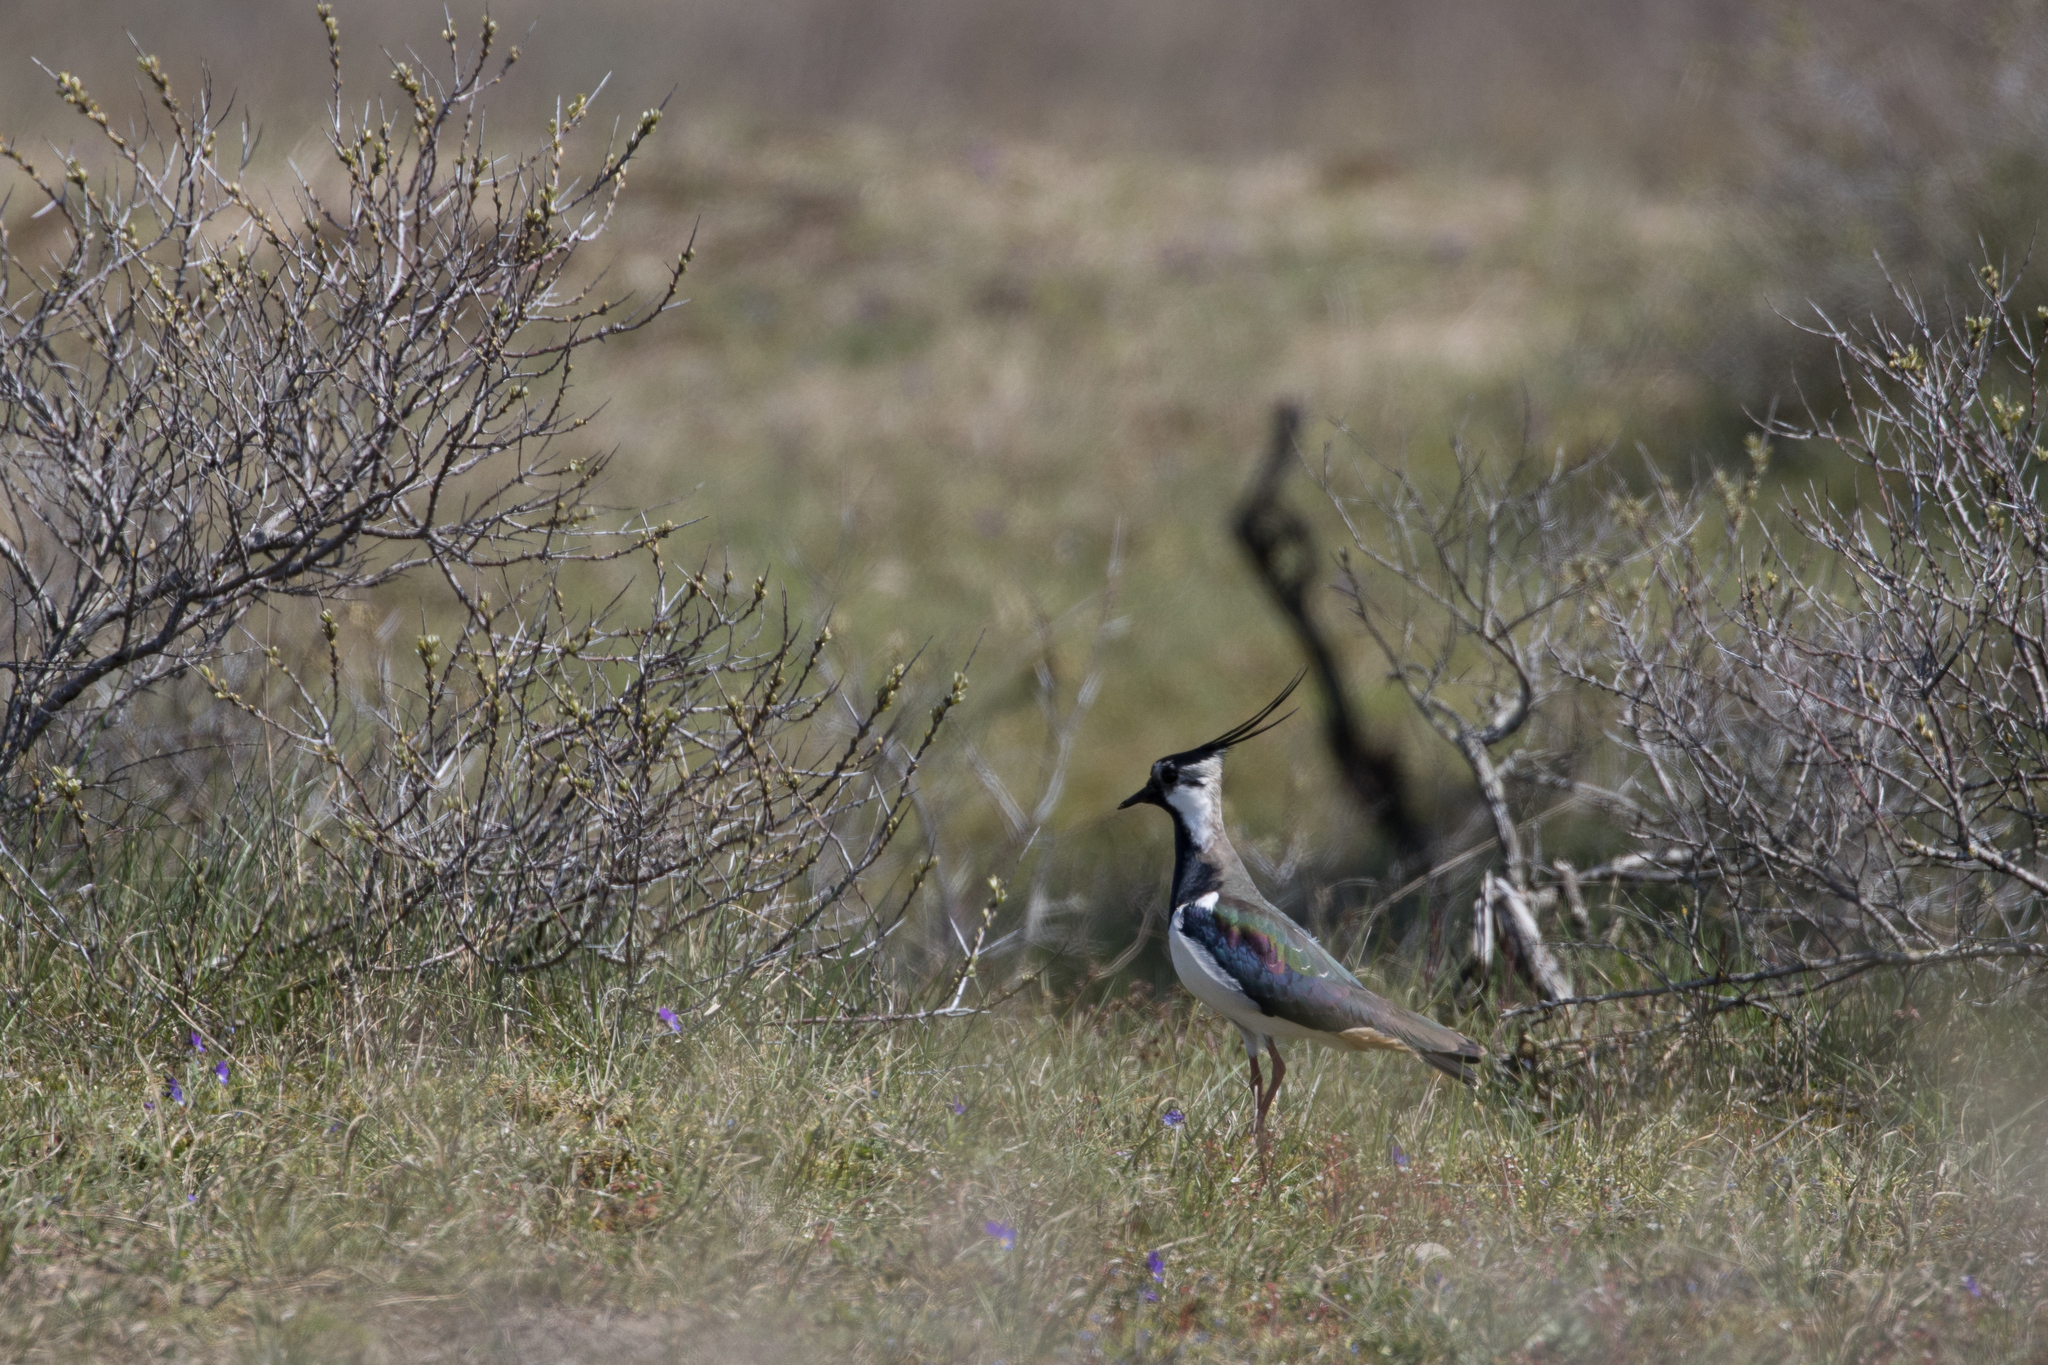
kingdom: Animalia
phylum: Chordata
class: Aves
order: Charadriiformes
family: Charadriidae
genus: Vanellus
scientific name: Vanellus vanellus
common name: Northern lapwing
